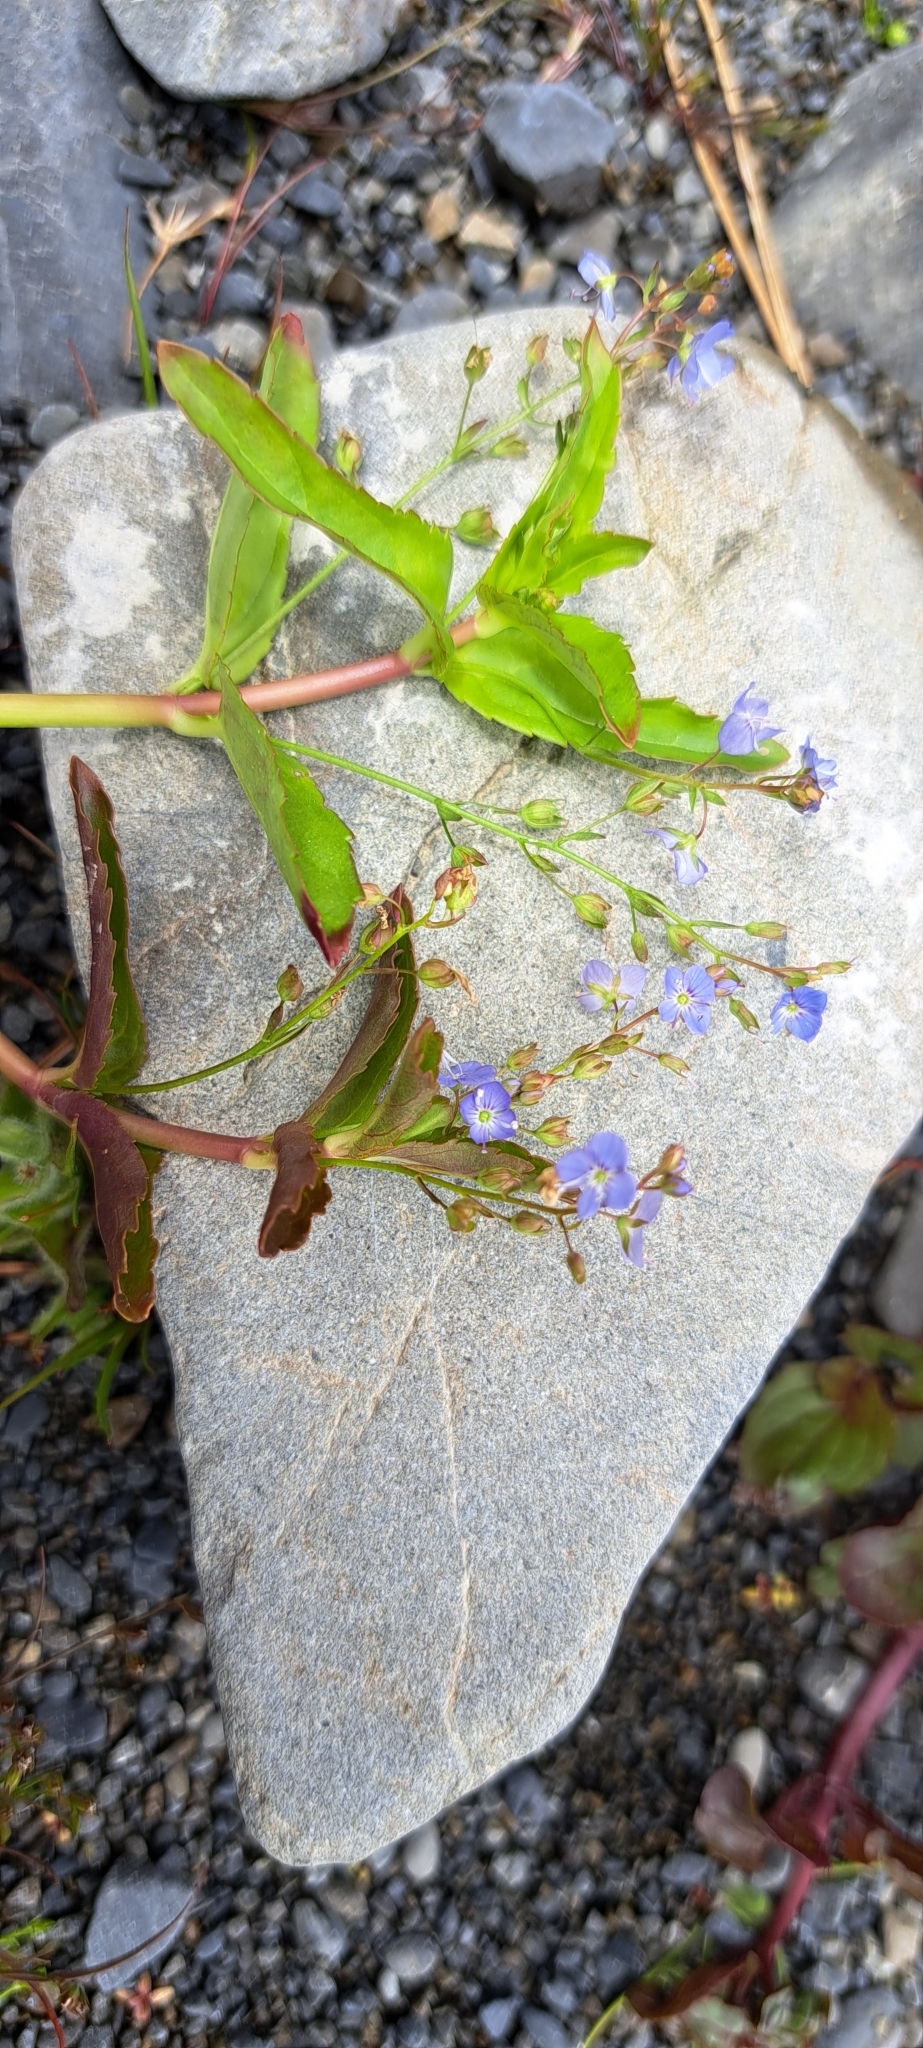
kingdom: Plantae
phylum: Tracheophyta
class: Magnoliopsida
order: Lamiales
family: Plantaginaceae
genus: Veronica
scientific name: Veronica americana
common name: American brooklime
